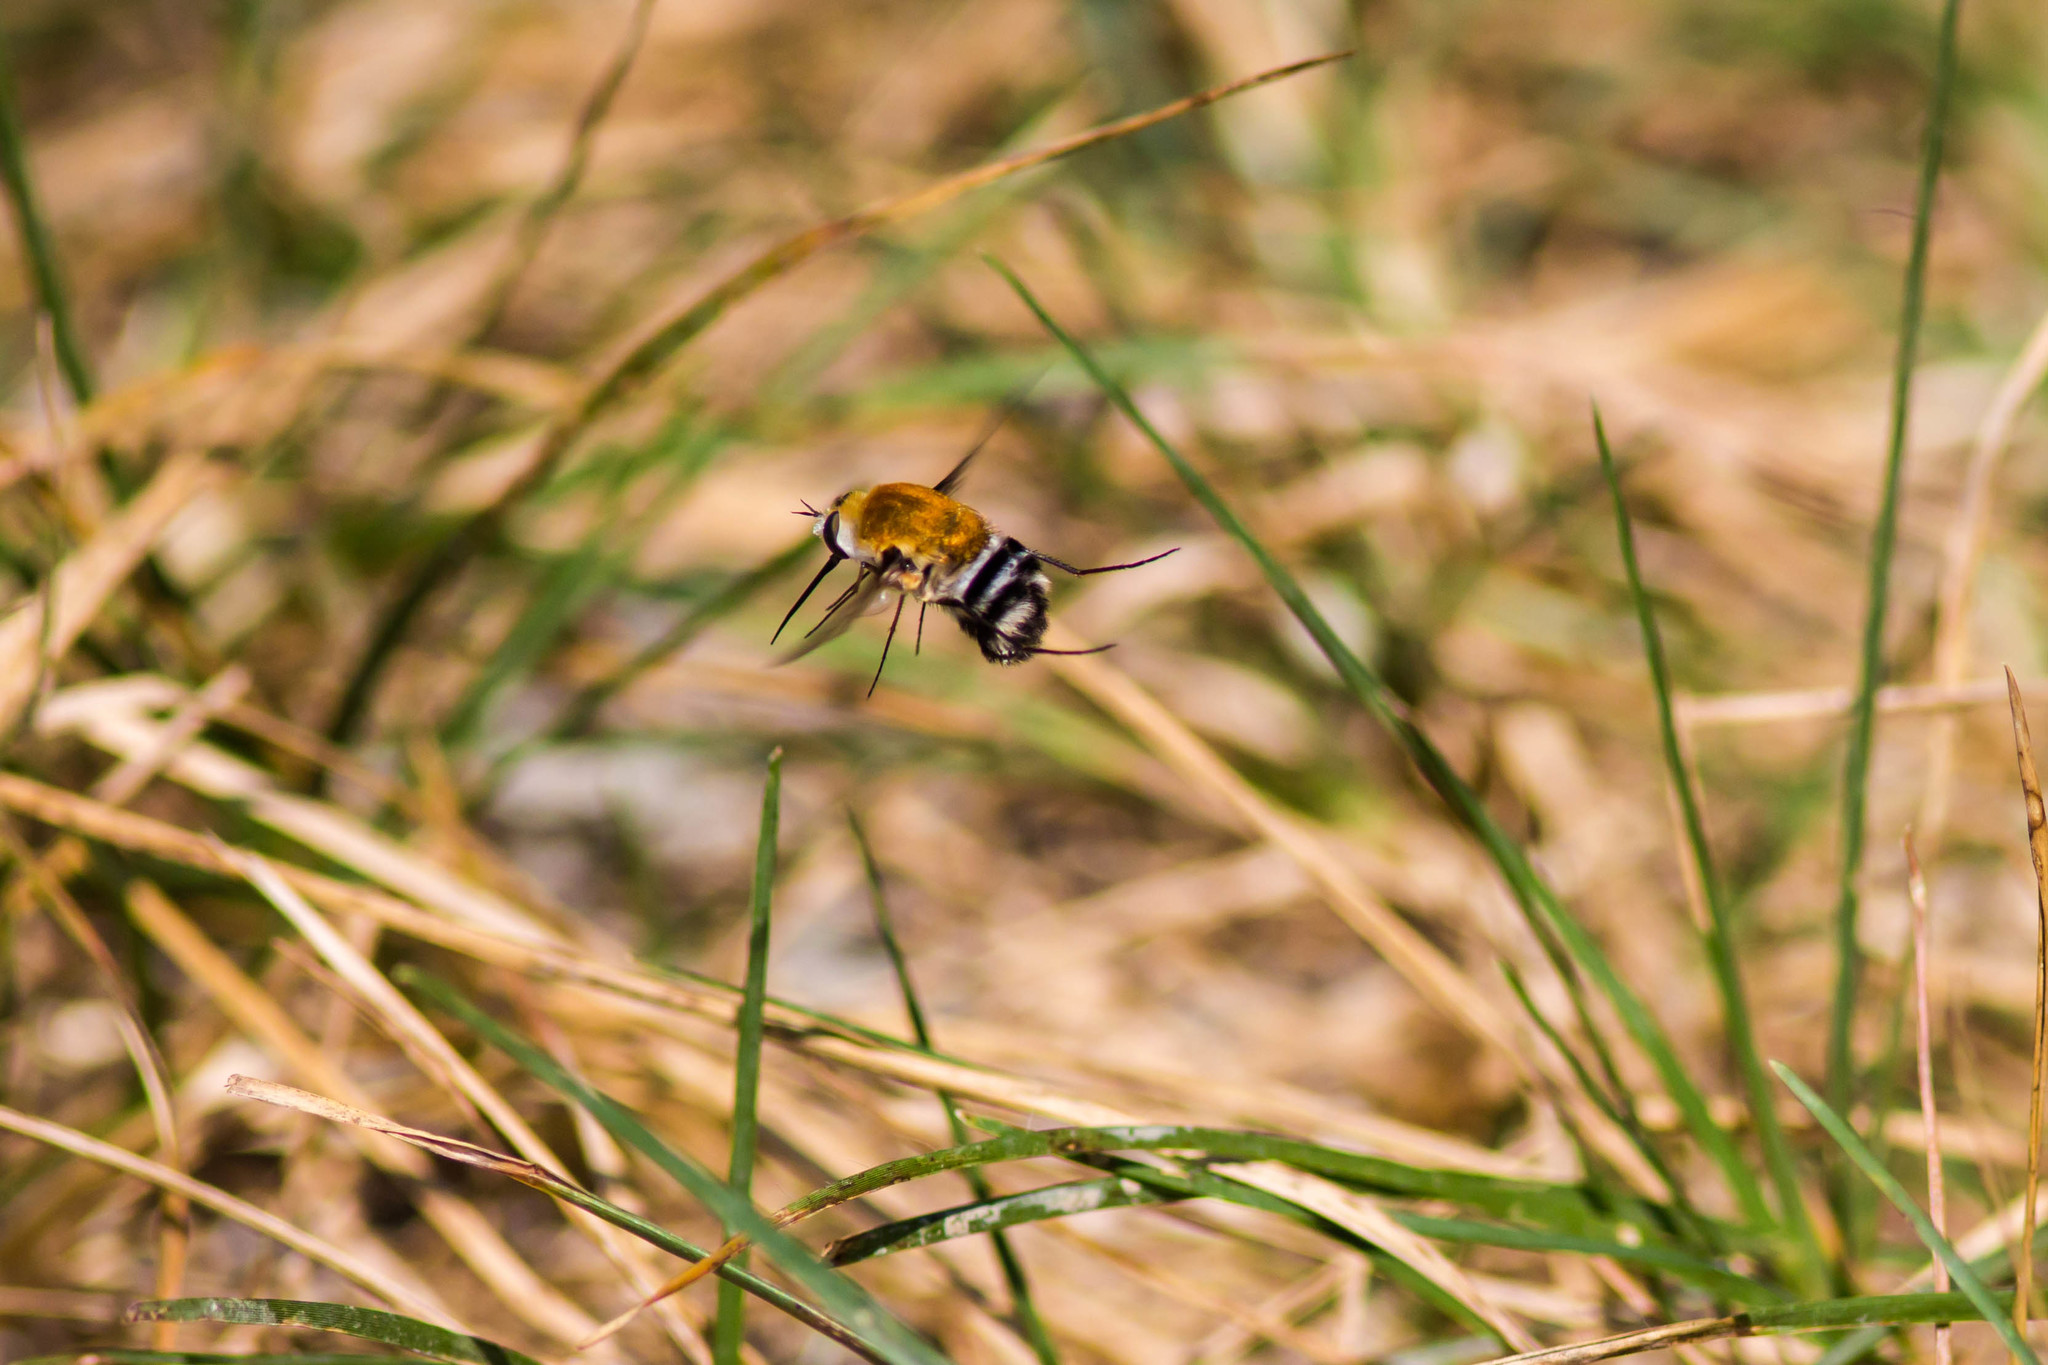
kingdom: Animalia
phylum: Arthropoda
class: Insecta
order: Diptera
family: Bombyliidae
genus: Heterostylum
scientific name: Heterostylum robustum
